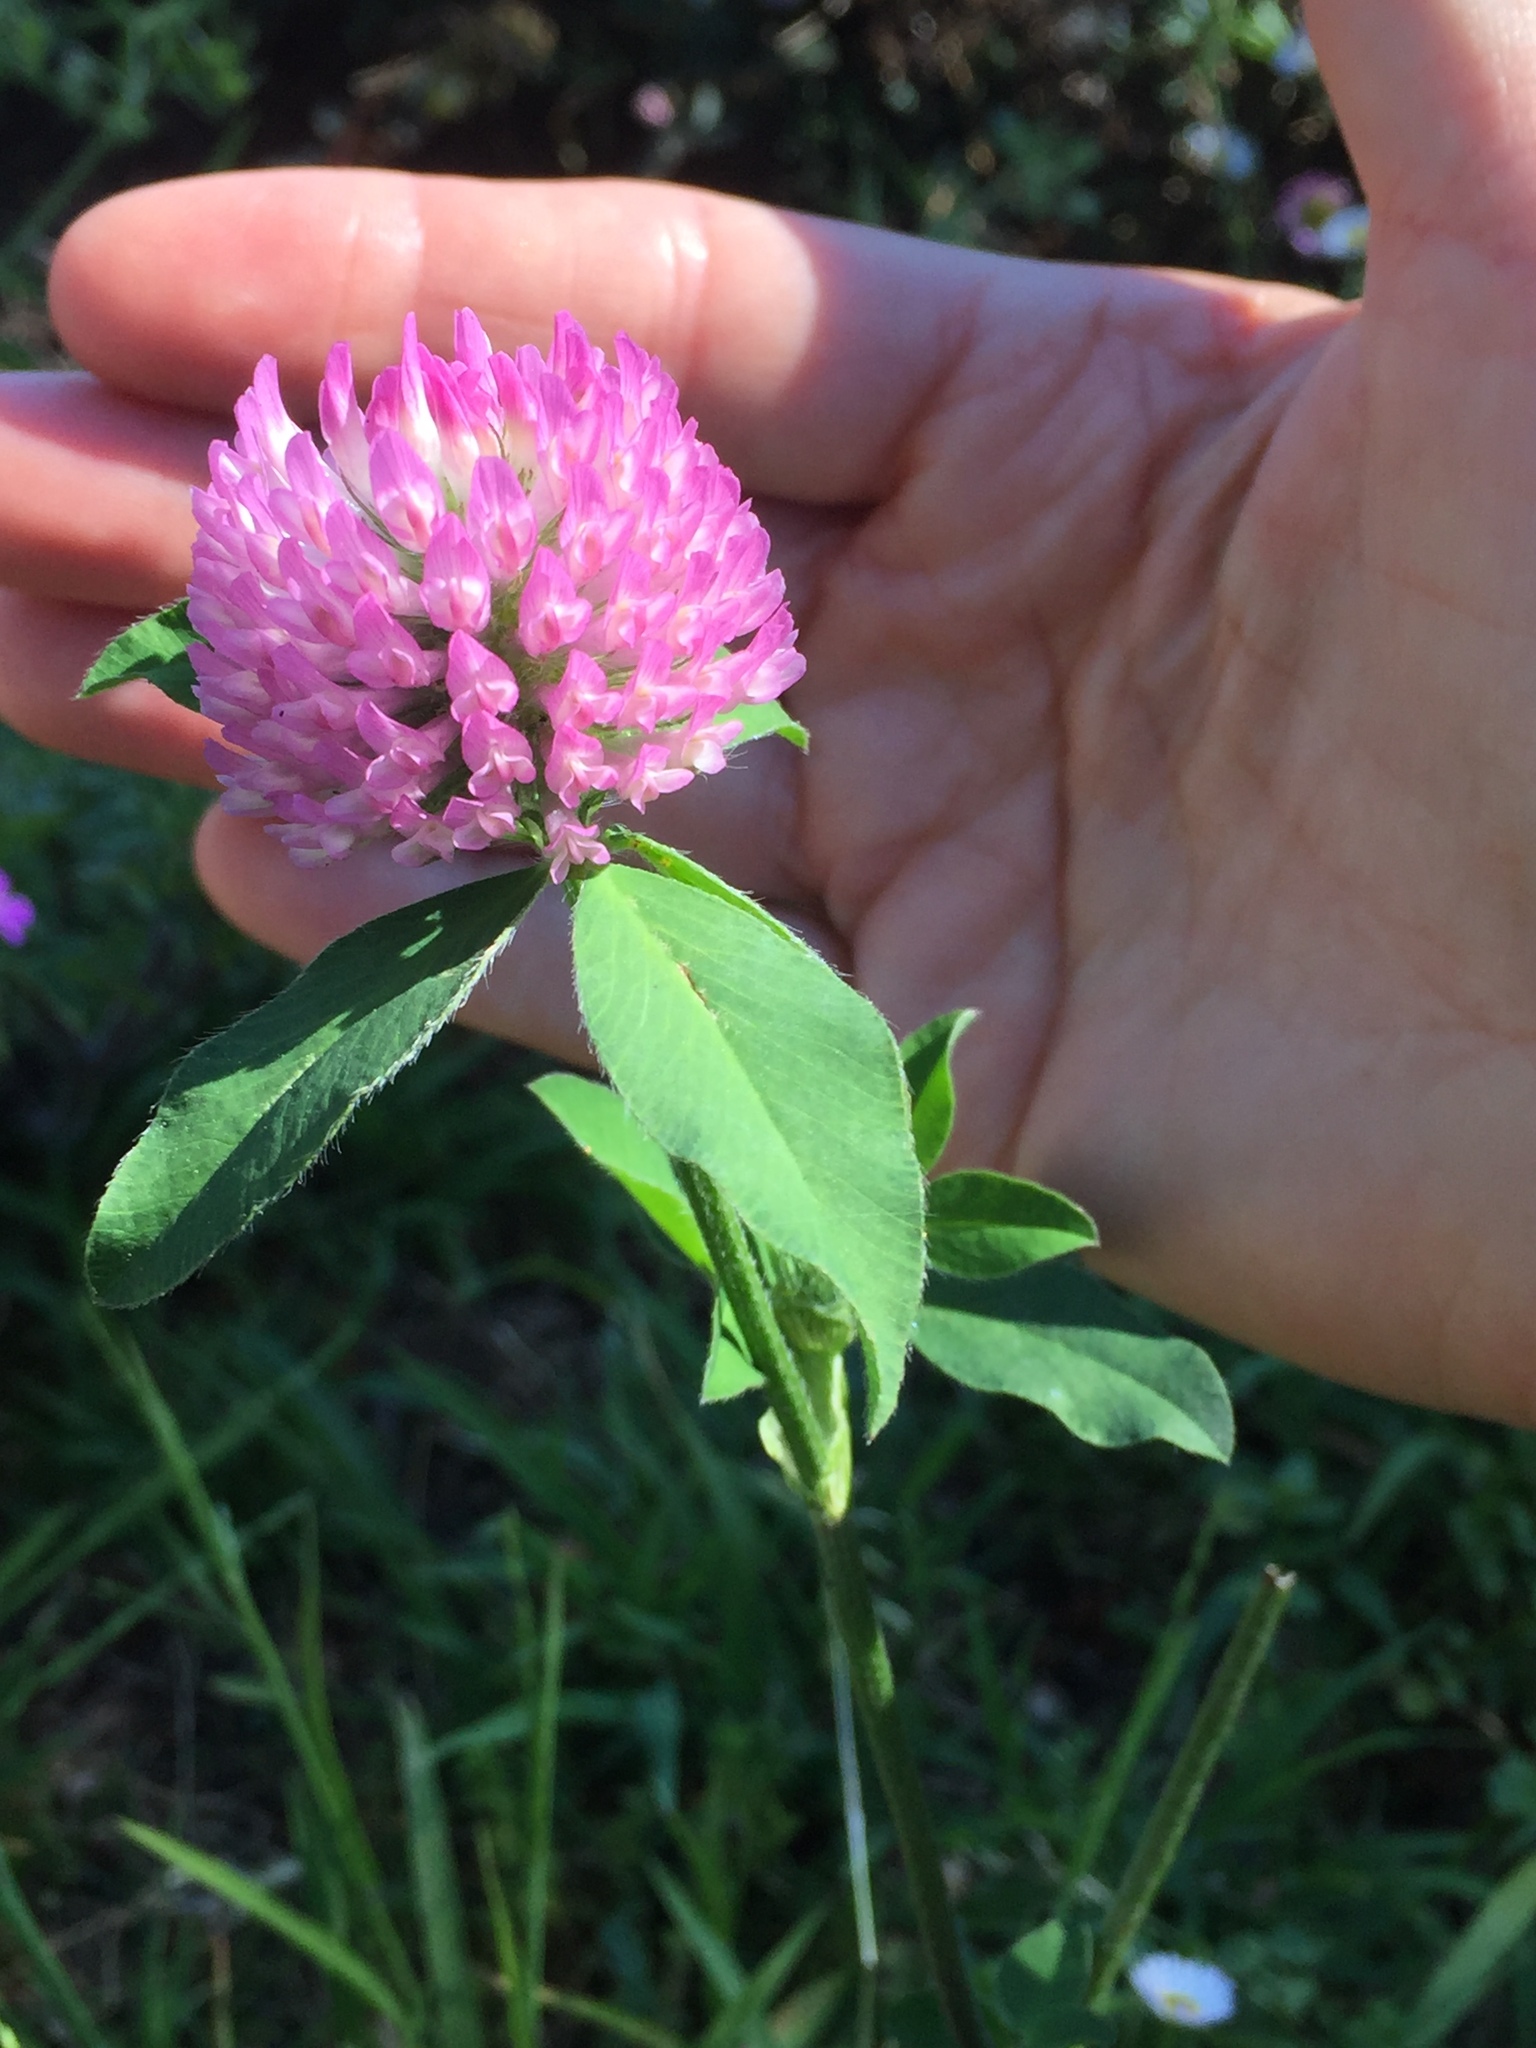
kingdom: Plantae
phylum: Tracheophyta
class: Magnoliopsida
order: Fabales
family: Fabaceae
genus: Trifolium
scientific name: Trifolium pratense
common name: Red clover
